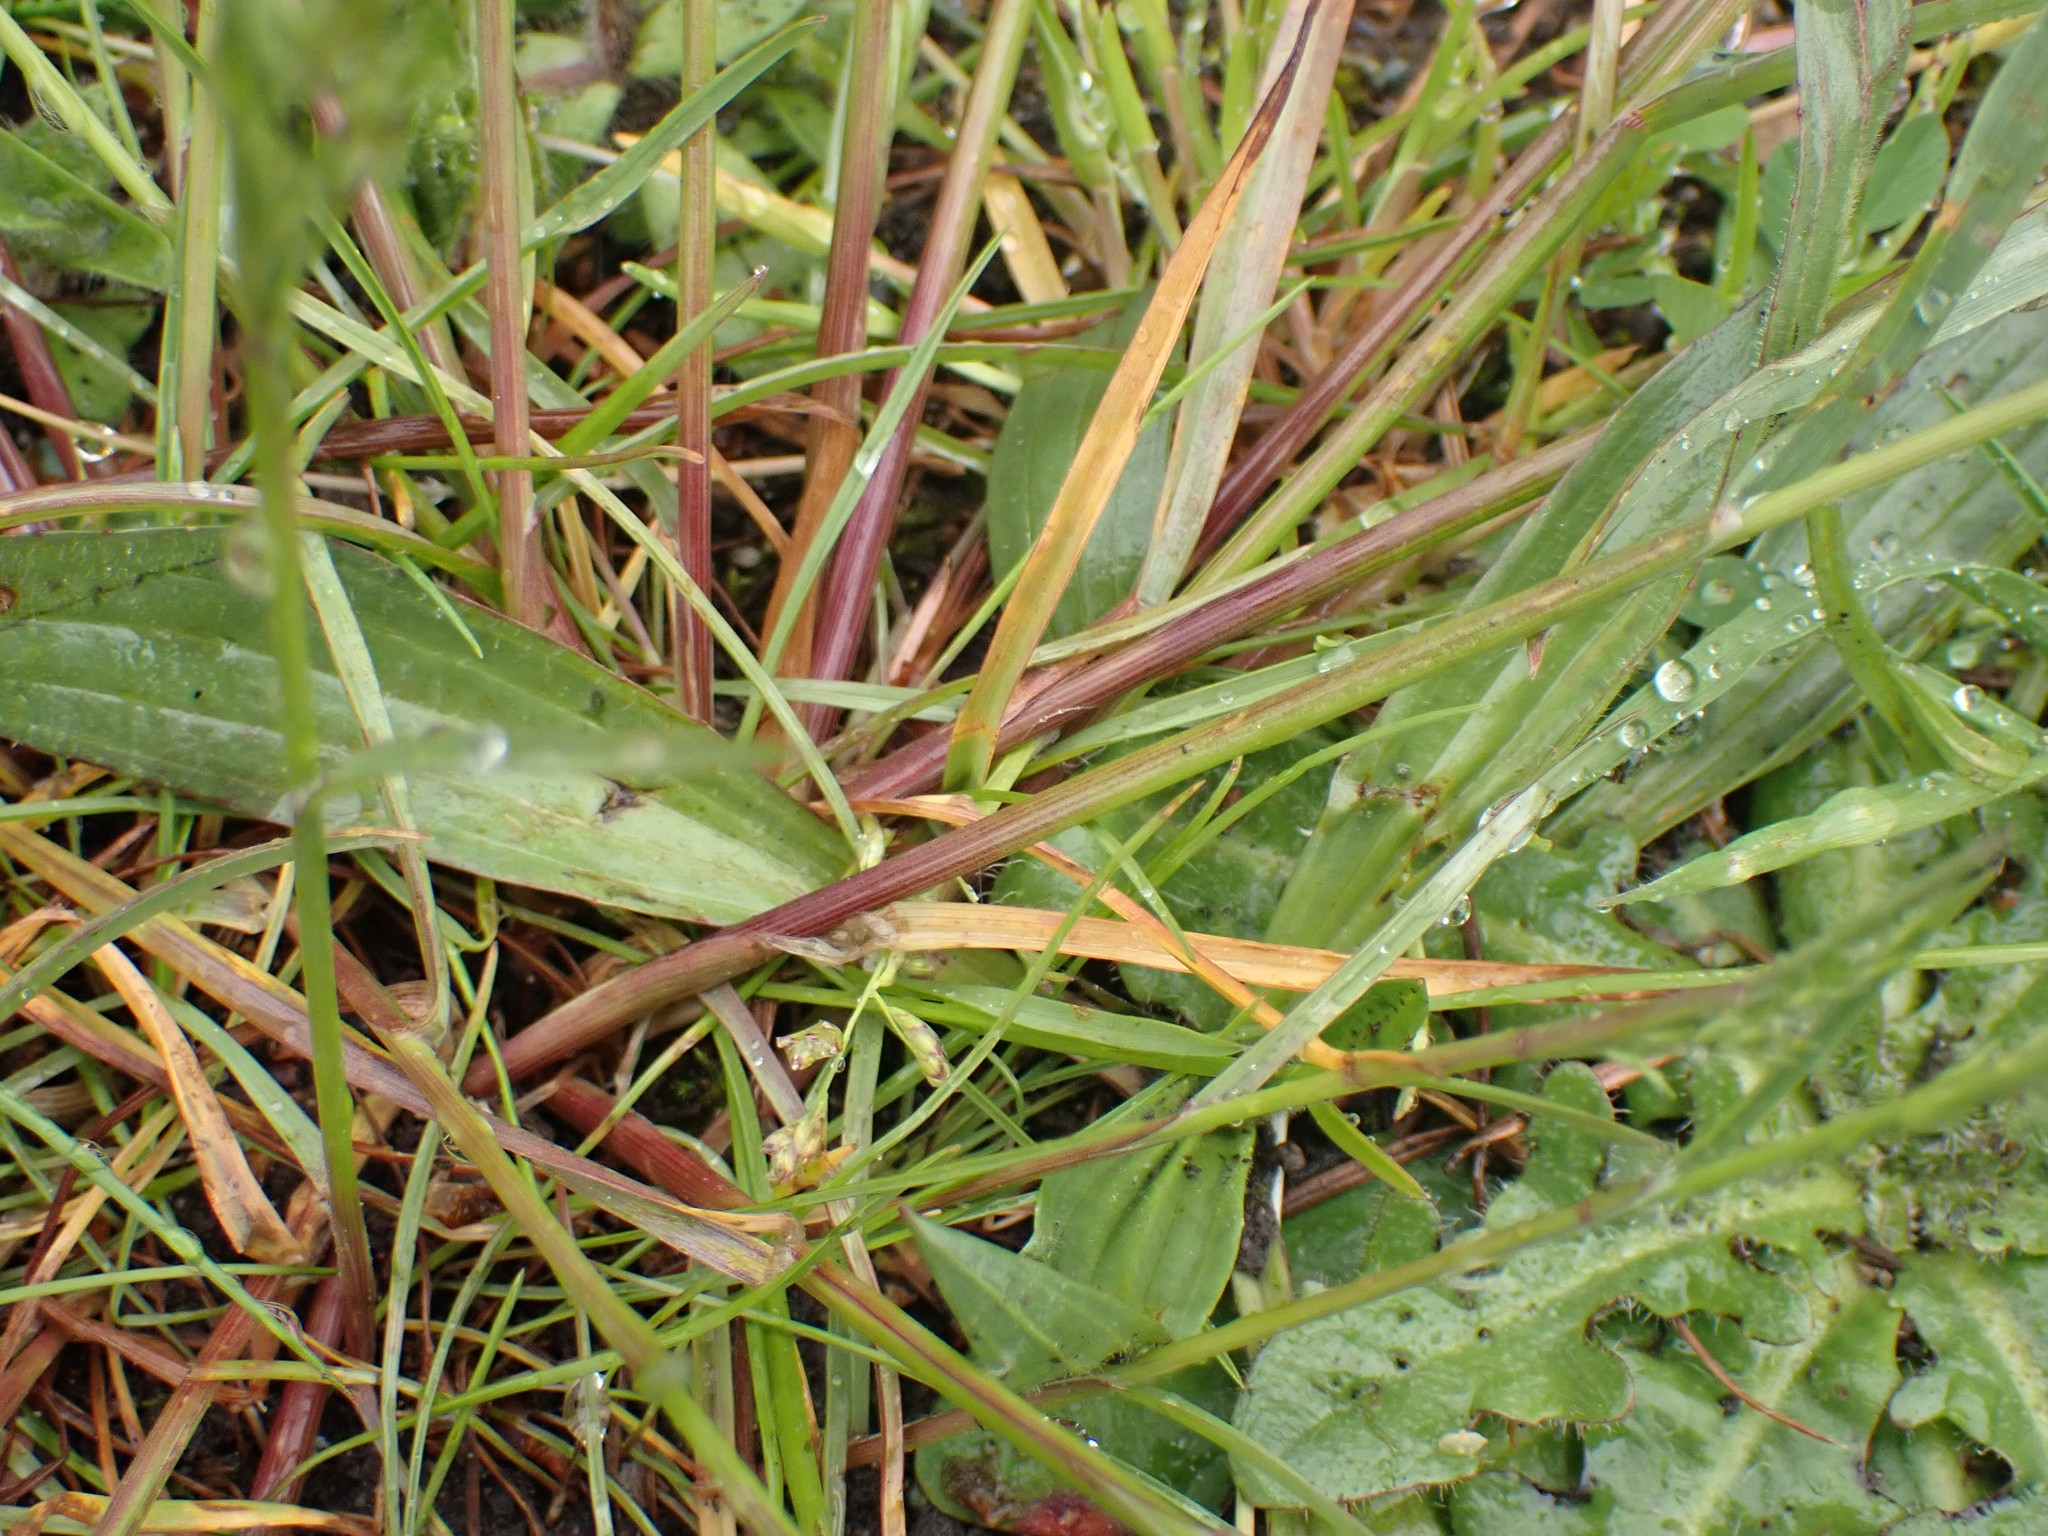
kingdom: Plantae
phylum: Tracheophyta
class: Liliopsida
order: Poales
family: Poaceae
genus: Poa
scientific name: Poa bulbosa
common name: Bulbous bluegrass
